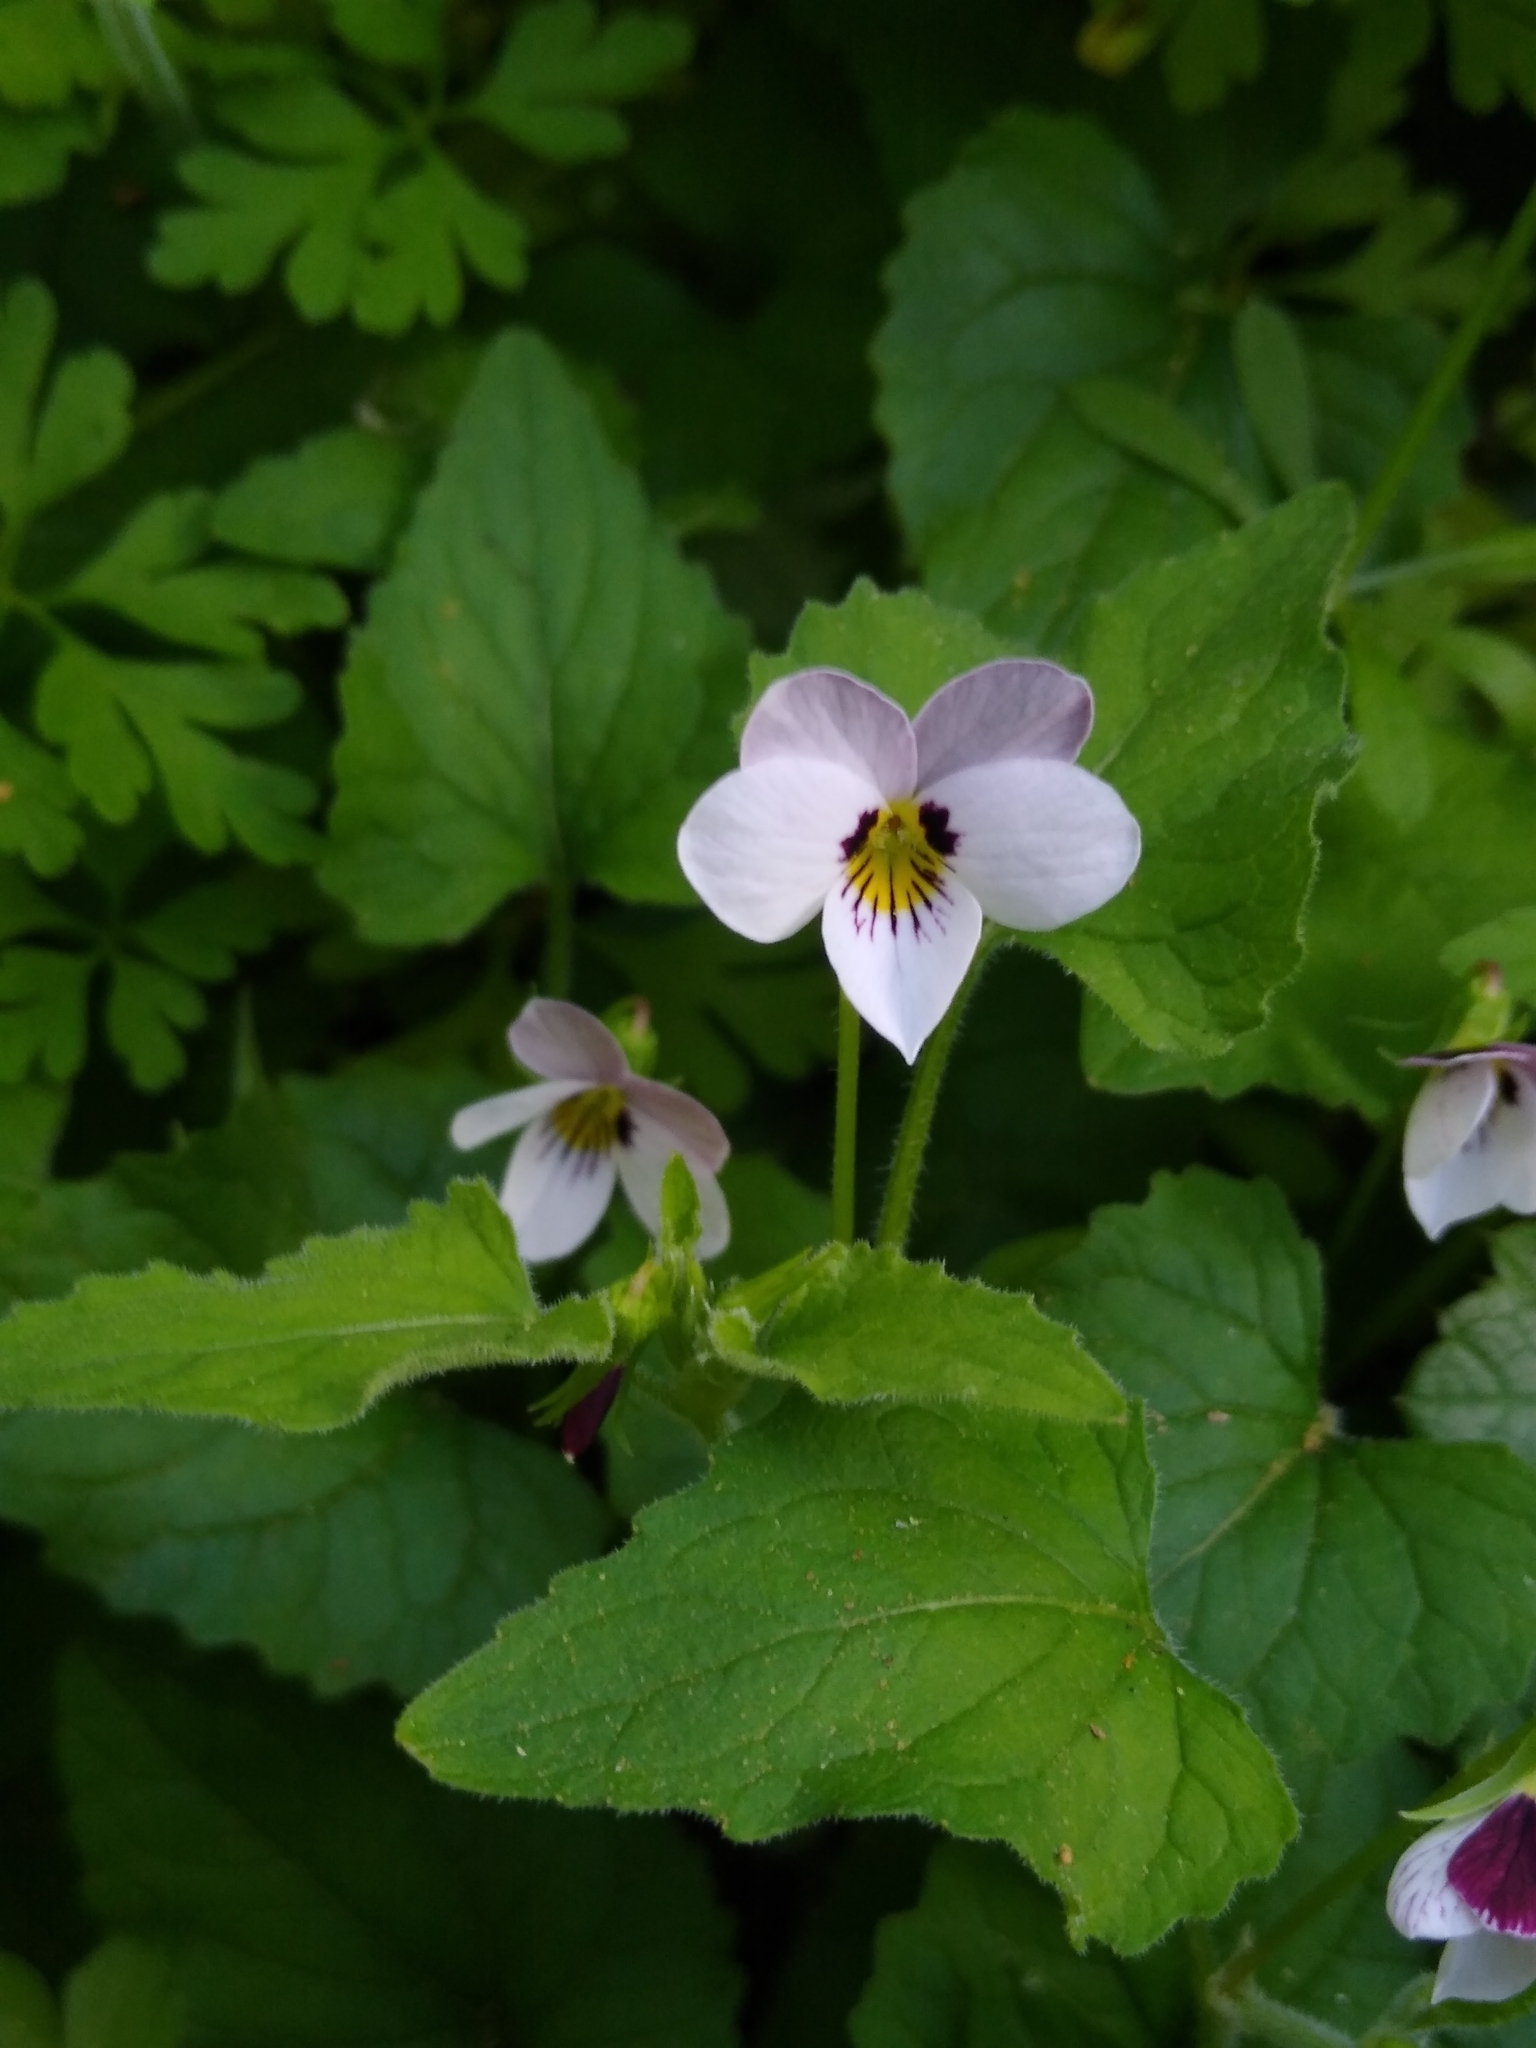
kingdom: Plantae
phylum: Tracheophyta
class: Magnoliopsida
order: Malpighiales
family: Violaceae
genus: Viola
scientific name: Viola ocellata
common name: Western heart's ease
